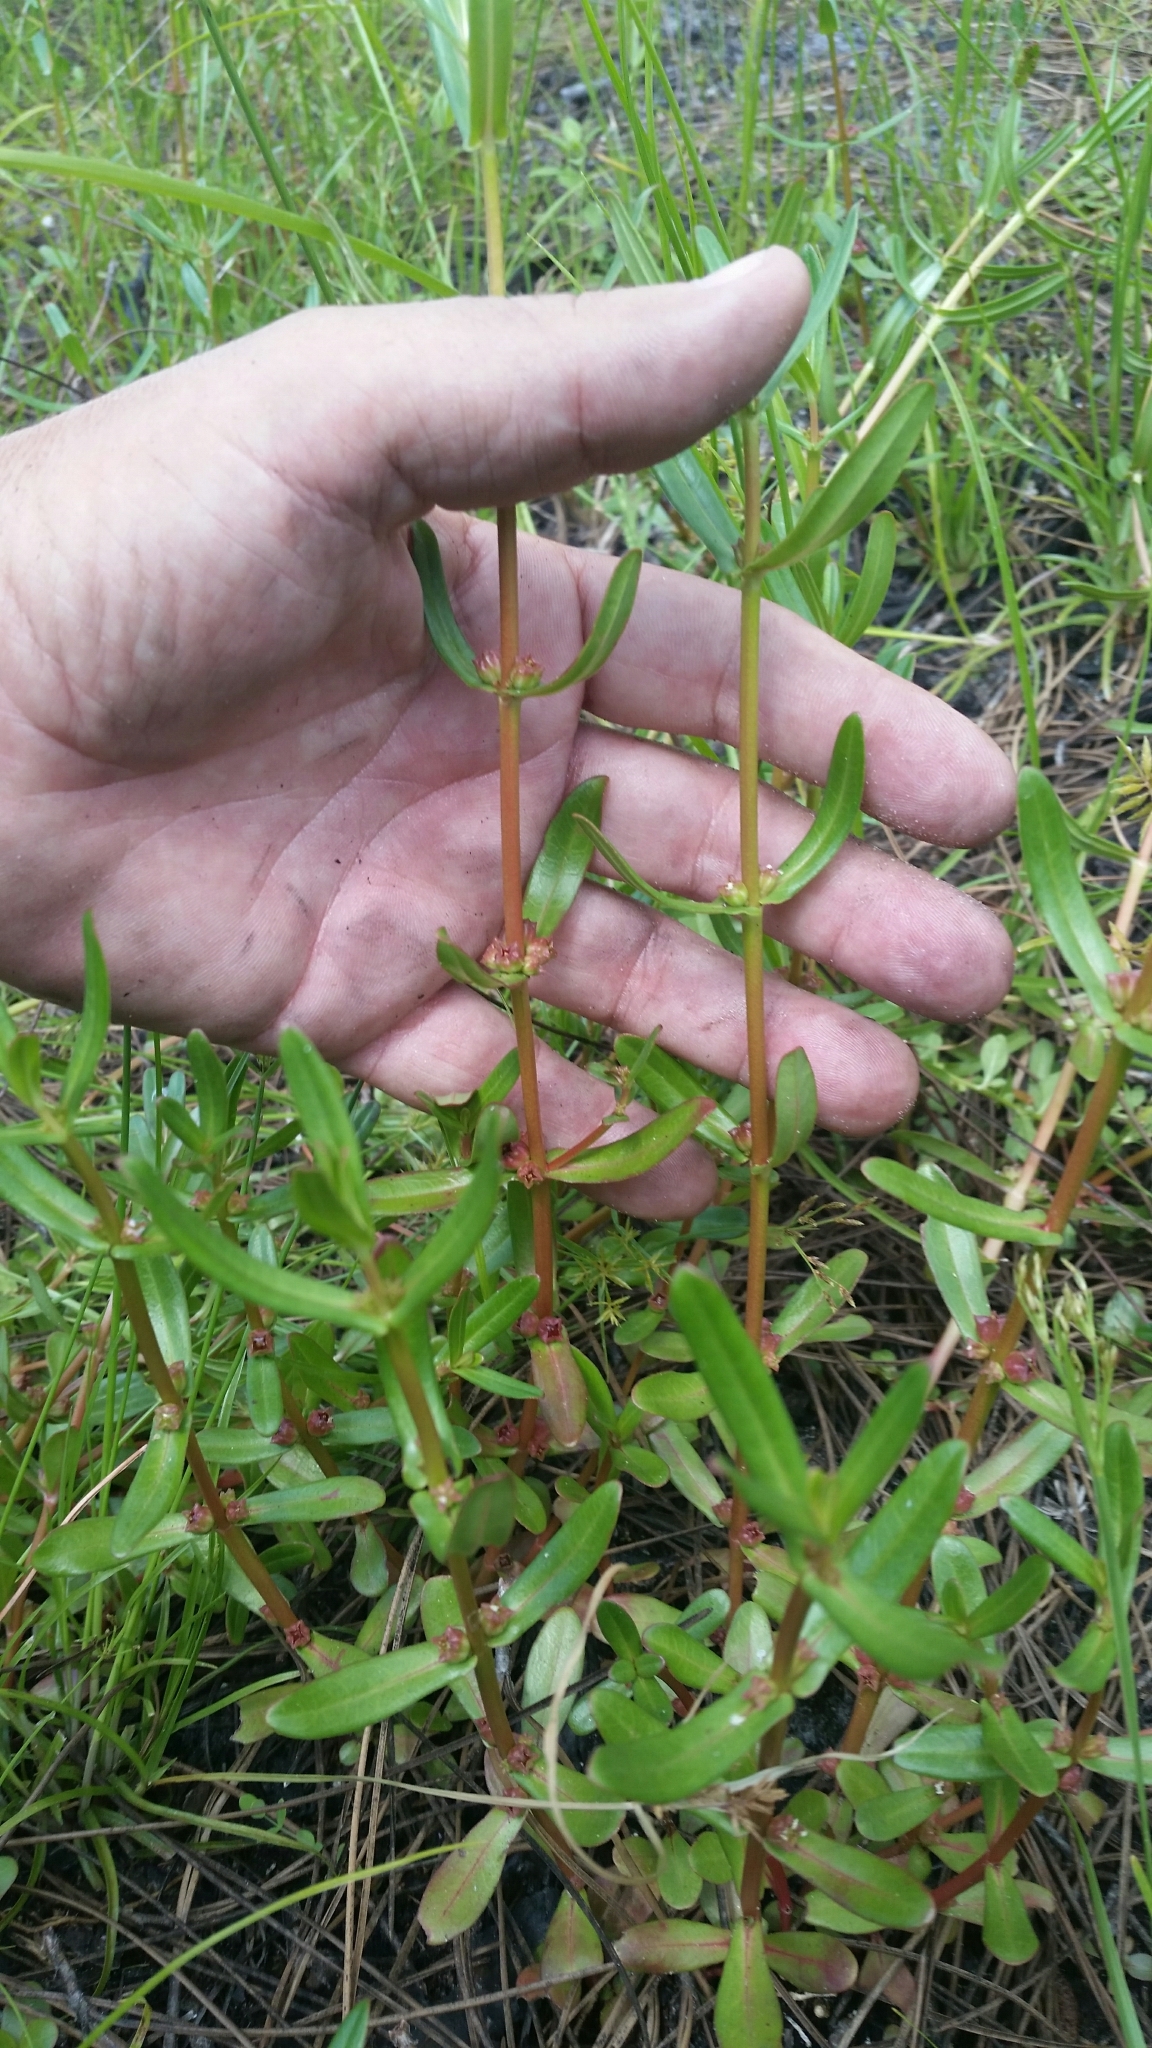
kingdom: Plantae
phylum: Tracheophyta
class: Magnoliopsida
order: Myrtales
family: Lythraceae
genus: Ammannia
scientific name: Ammannia latifolia
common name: Toothcup
